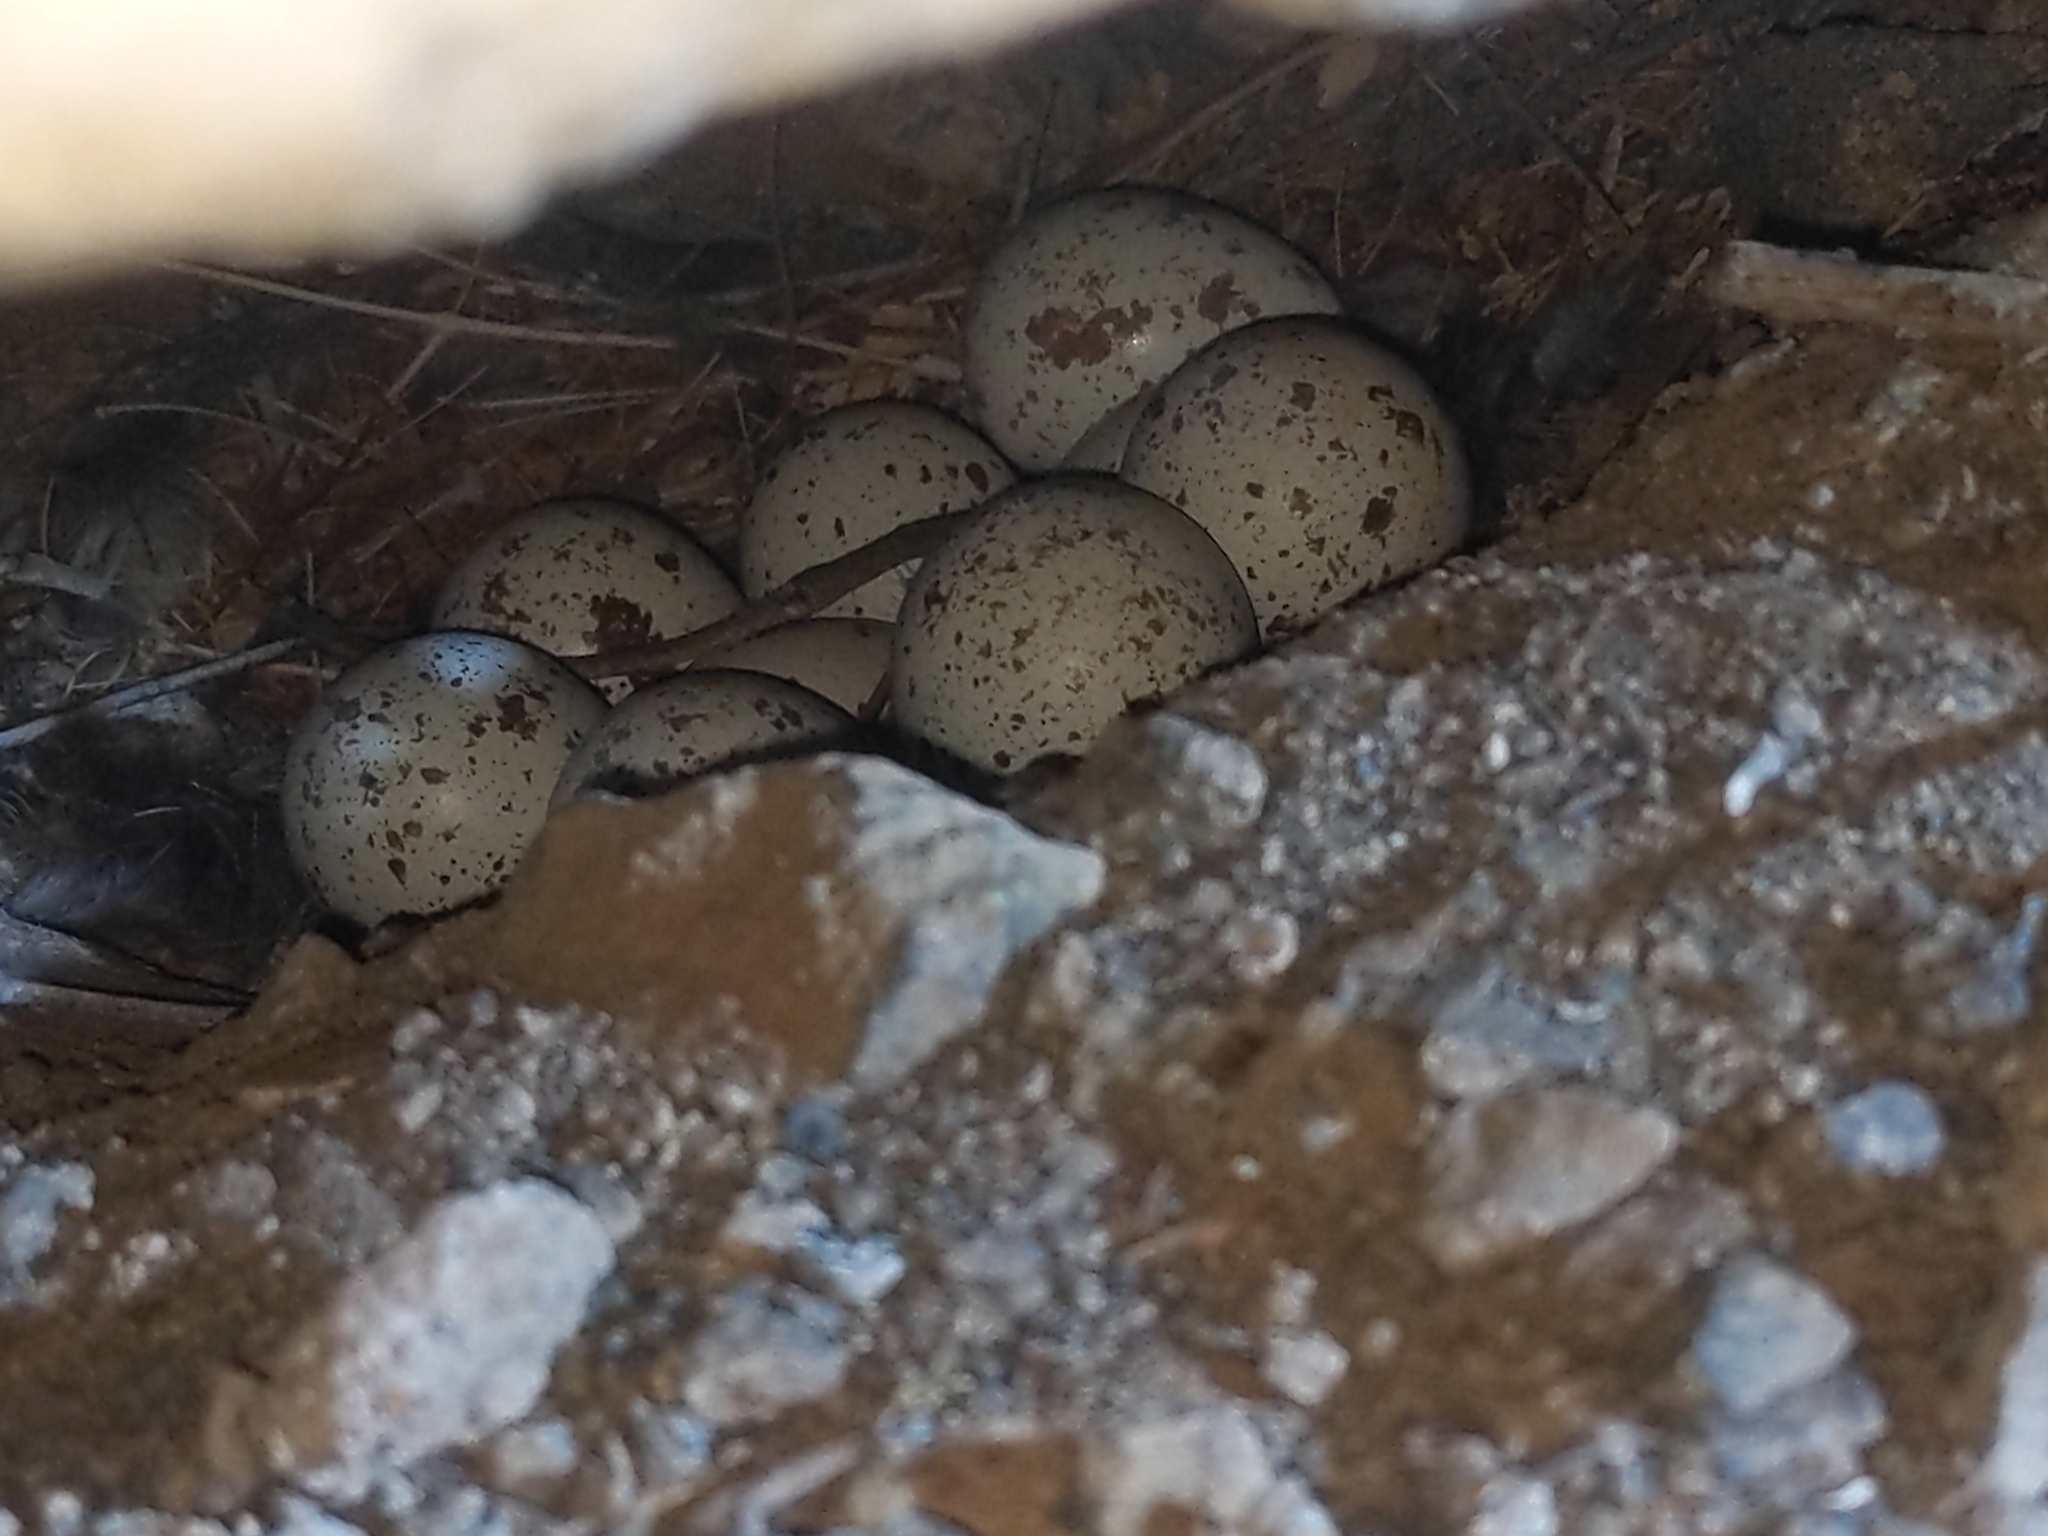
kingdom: Animalia
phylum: Chordata
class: Aves
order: Galliformes
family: Odontophoridae
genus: Callipepla
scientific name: Callipepla gambelii
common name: Gambel's quail
